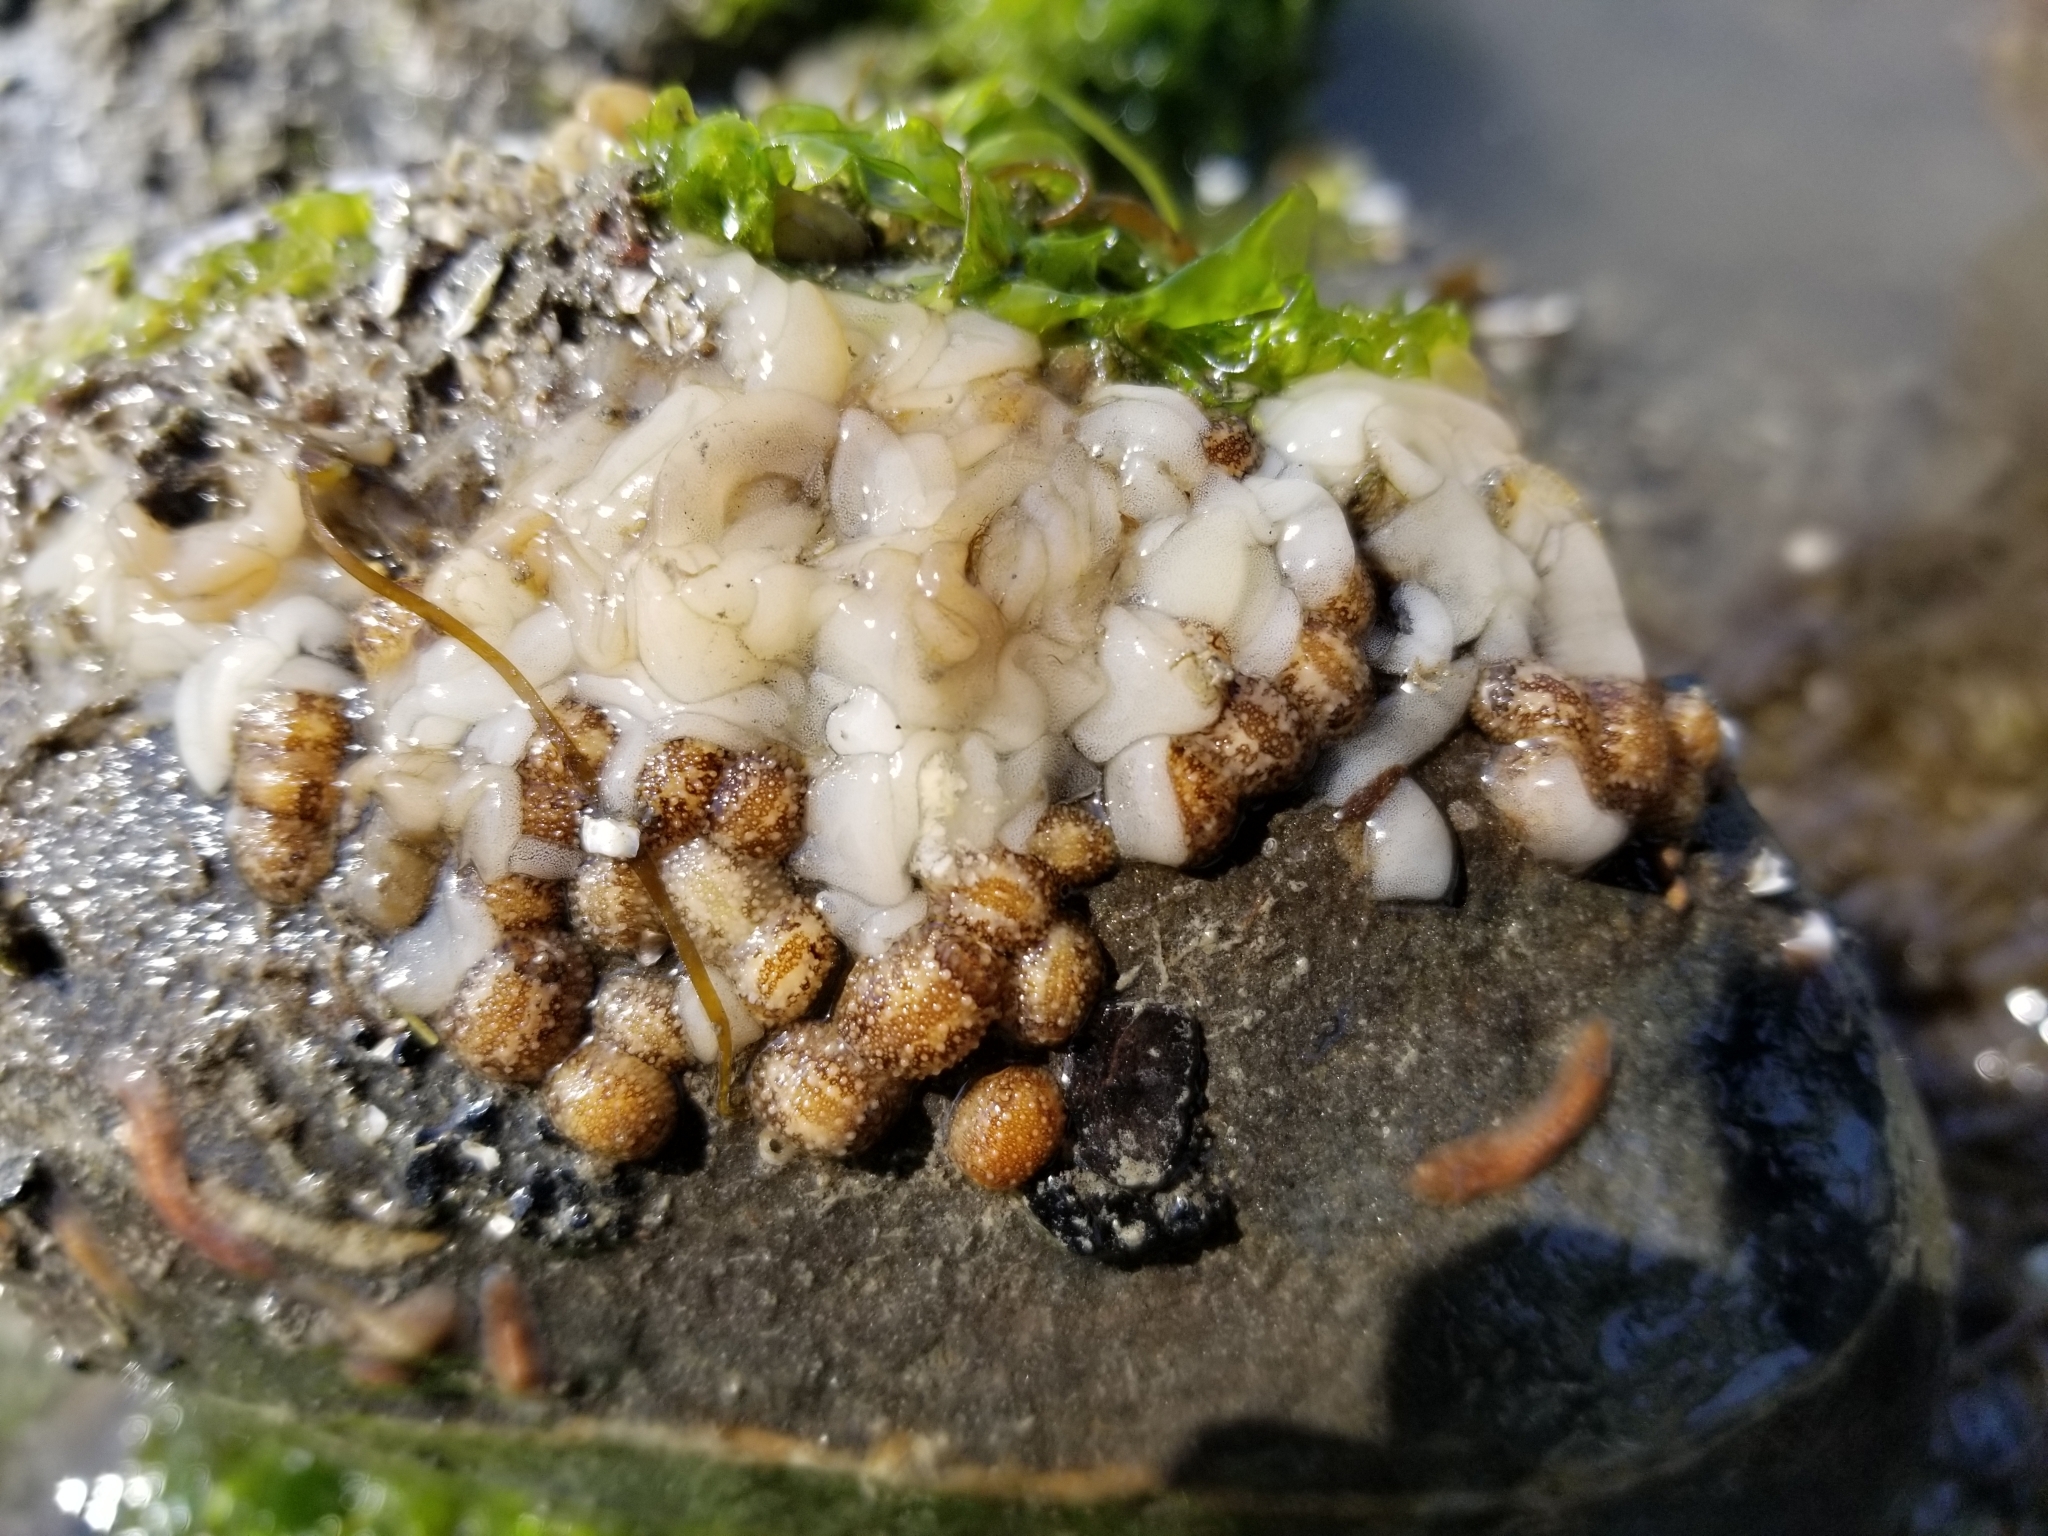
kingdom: Animalia
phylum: Mollusca
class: Gastropoda
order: Nudibranchia
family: Onchidorididae
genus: Onchidoris
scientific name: Onchidoris bilamellata
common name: Barnacle-eating onchidoris
